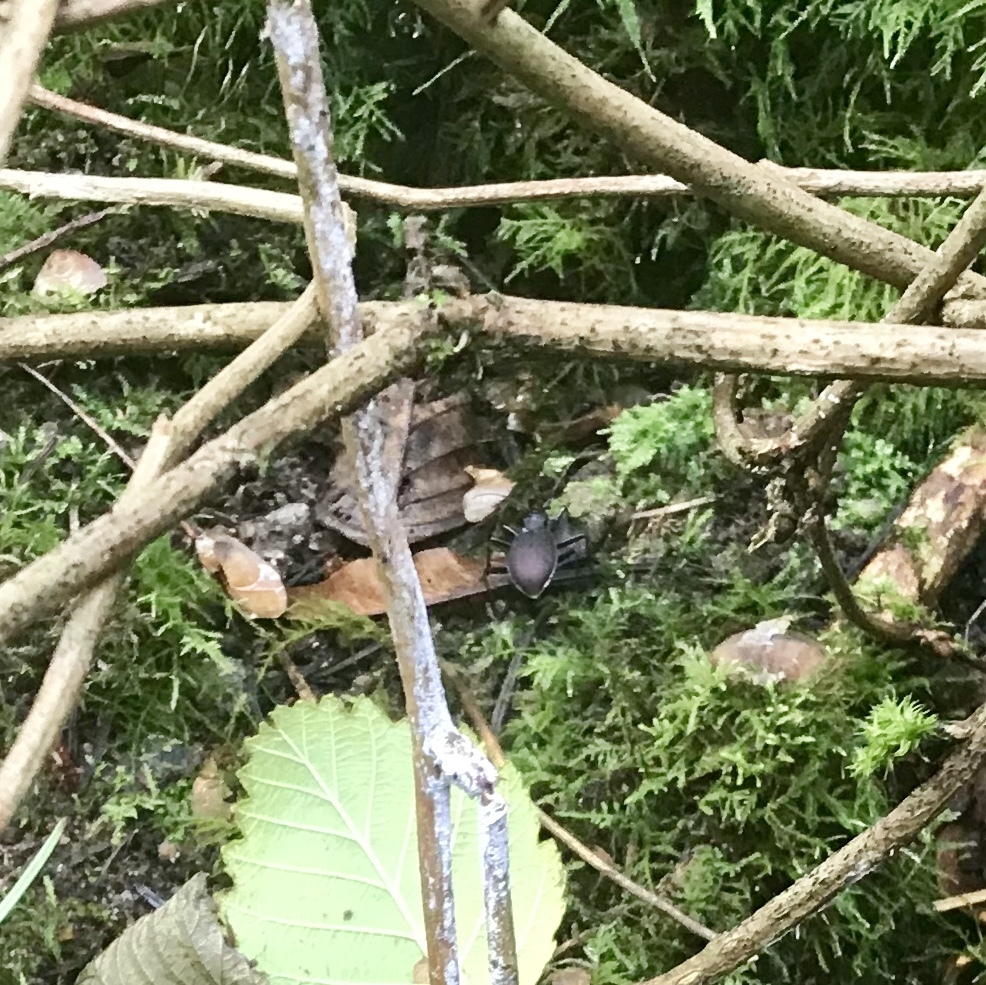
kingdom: Animalia
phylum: Arthropoda
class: Insecta
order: Coleoptera
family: Carabidae
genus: Scaphinotus
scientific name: Scaphinotus angusticollis
